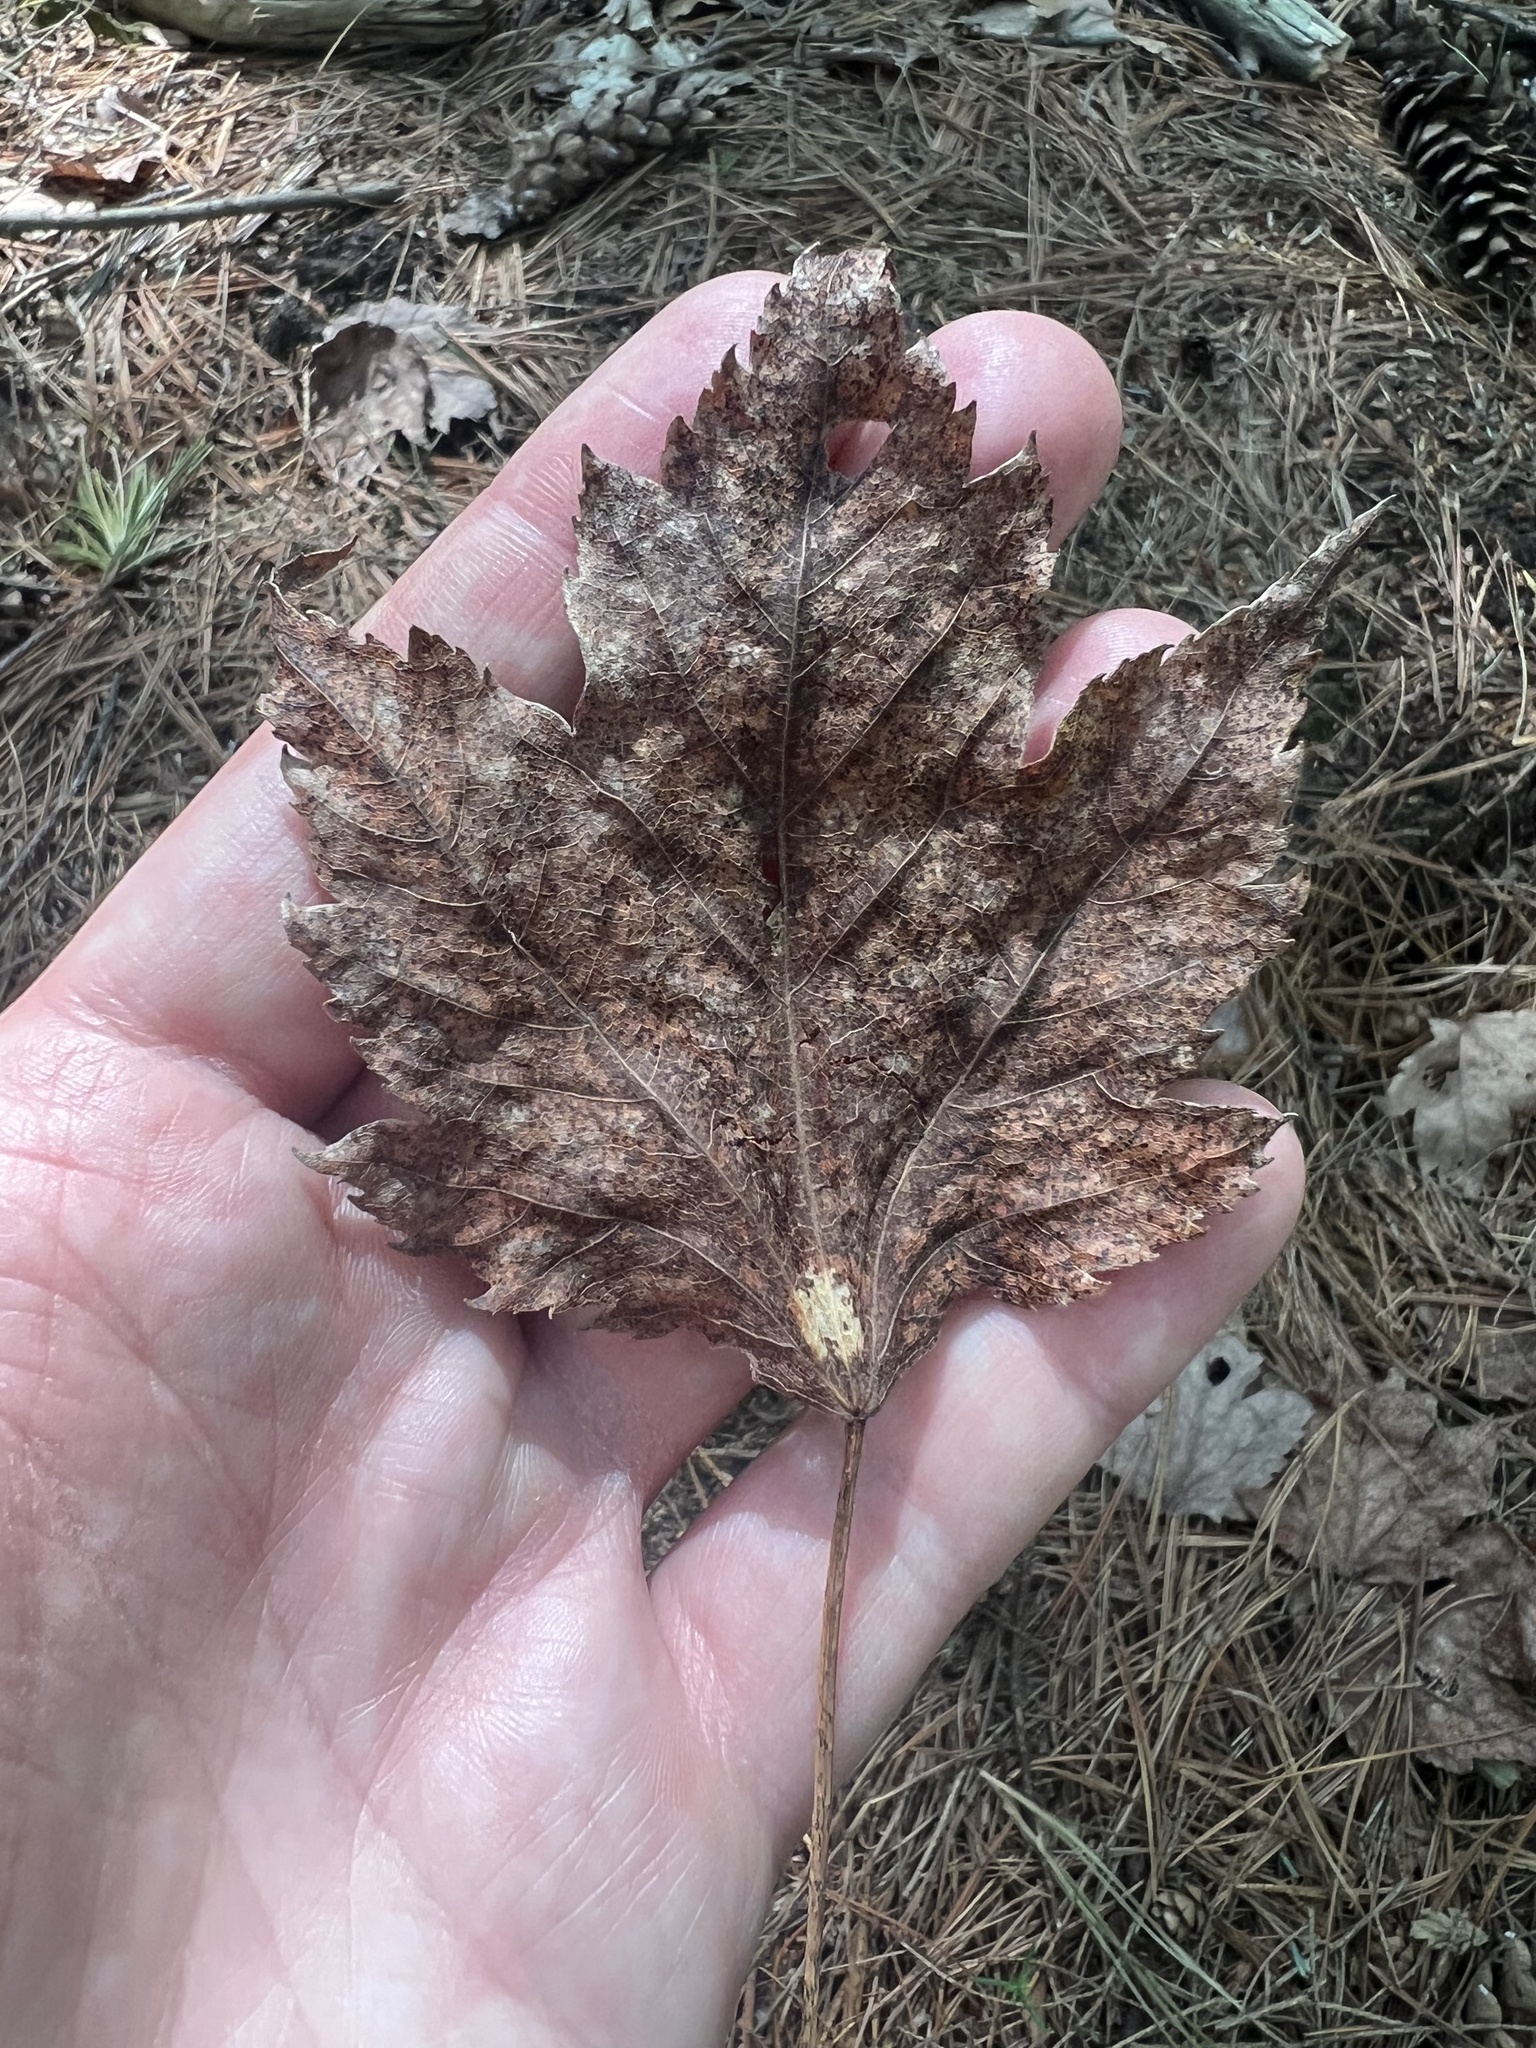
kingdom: Plantae
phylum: Tracheophyta
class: Magnoliopsida
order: Sapindales
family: Sapindaceae
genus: Acer
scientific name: Acer rubrum
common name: Red maple
